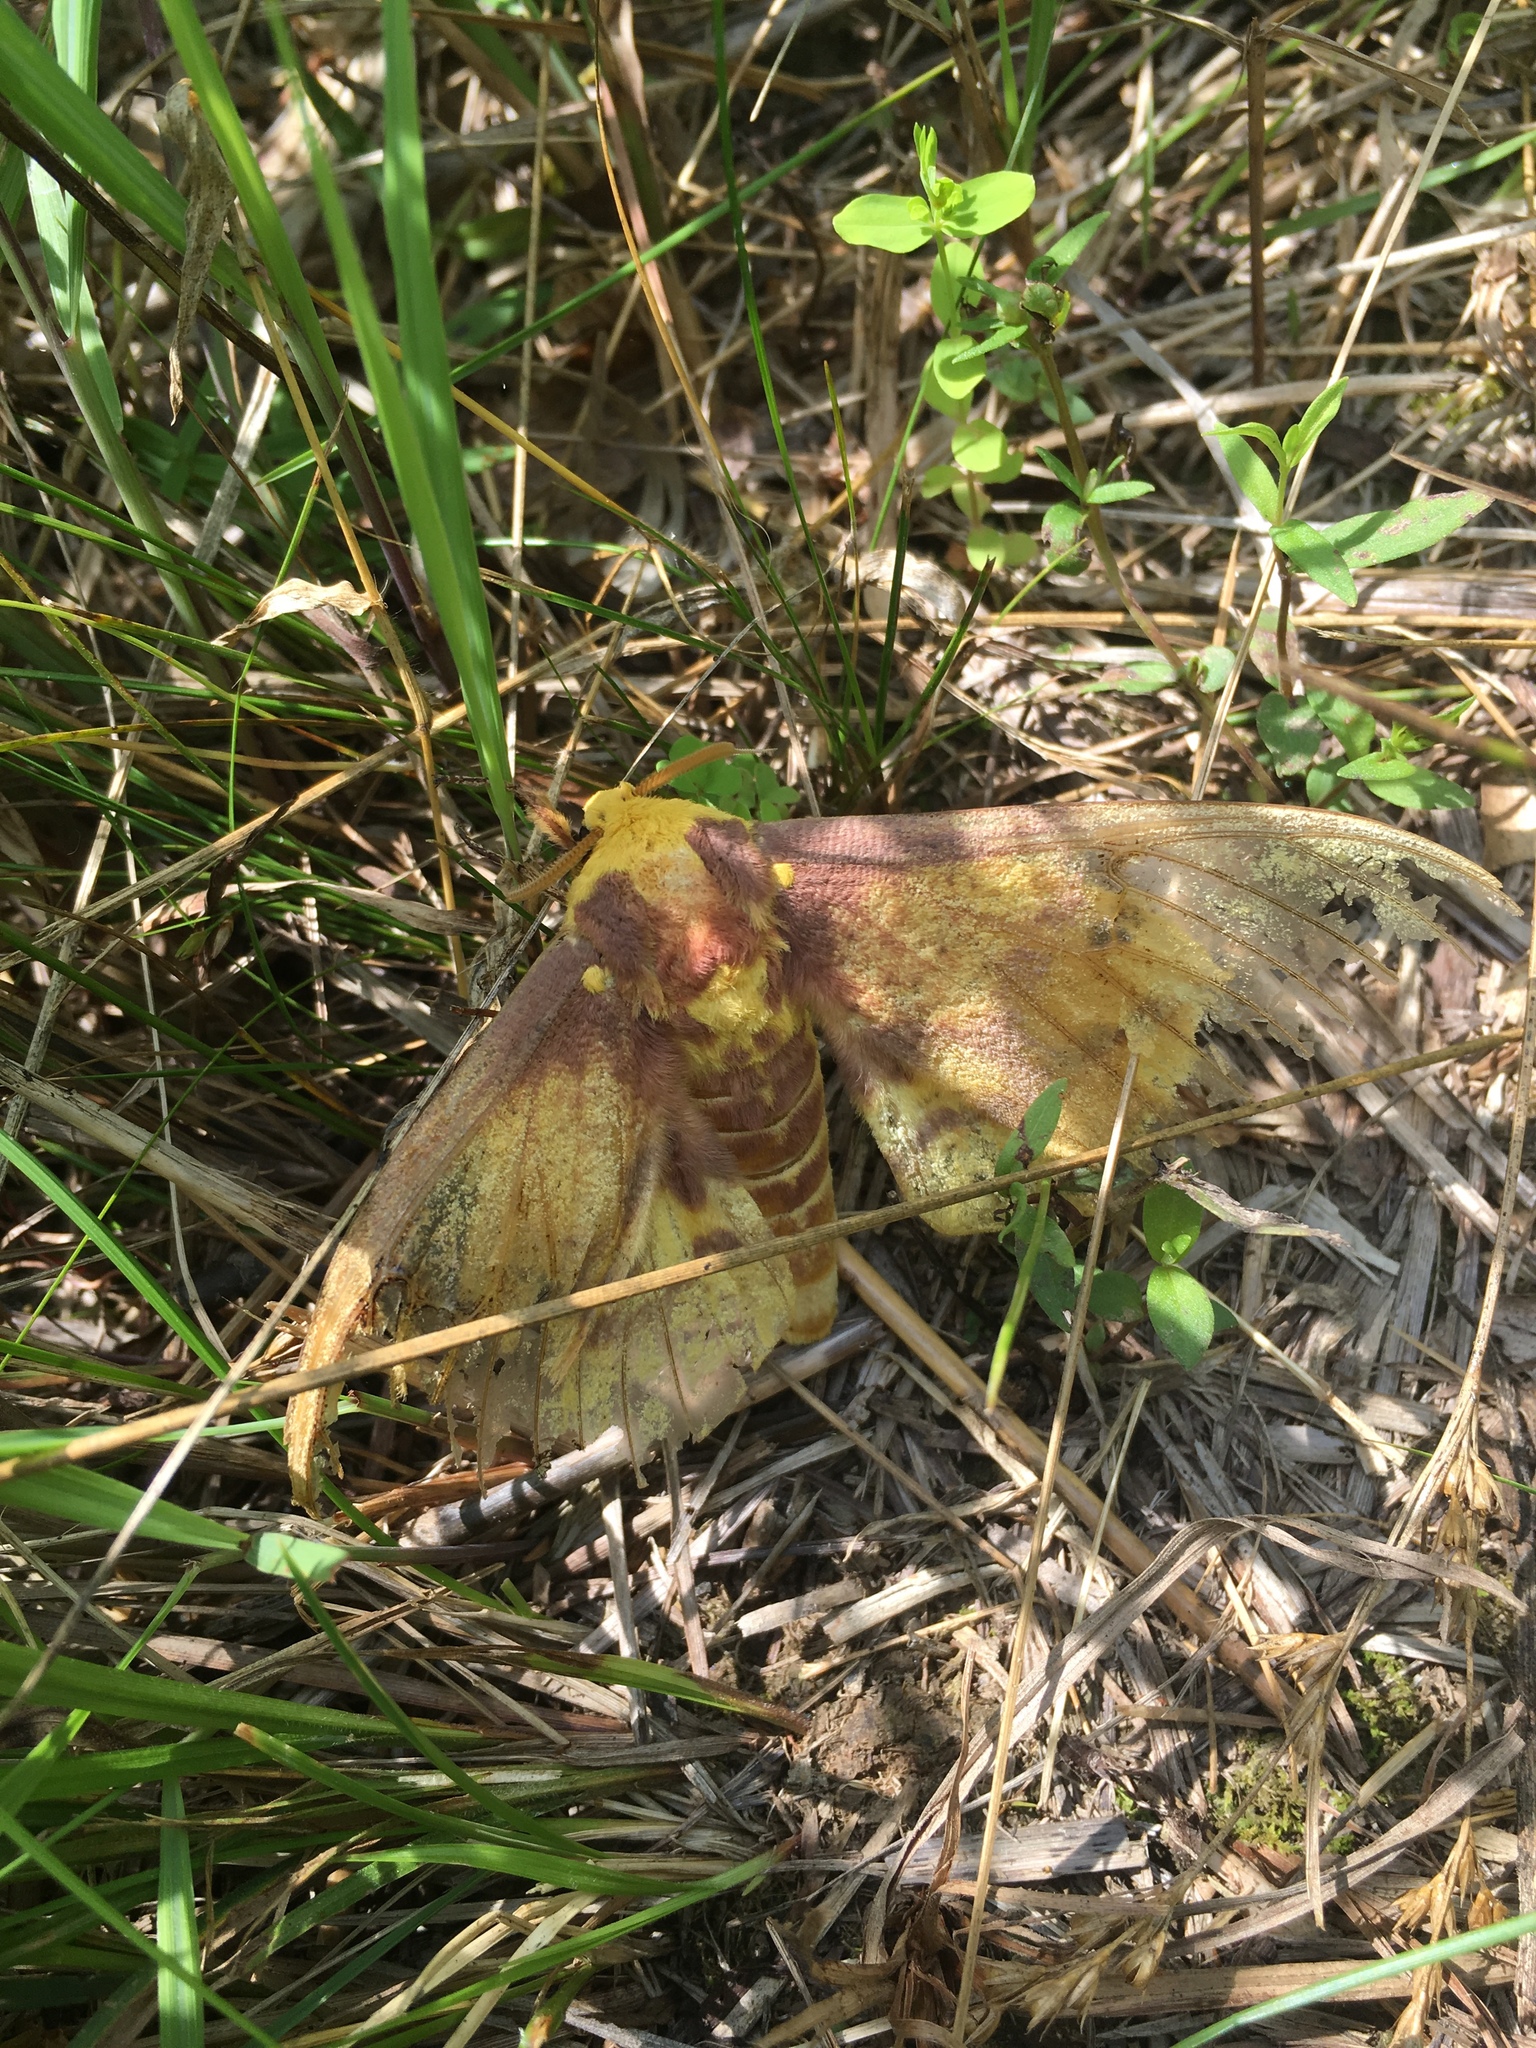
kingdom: Animalia
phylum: Arthropoda
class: Insecta
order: Lepidoptera
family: Saturniidae
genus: Eacles
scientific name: Eacles imperialis
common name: Imperial moth
